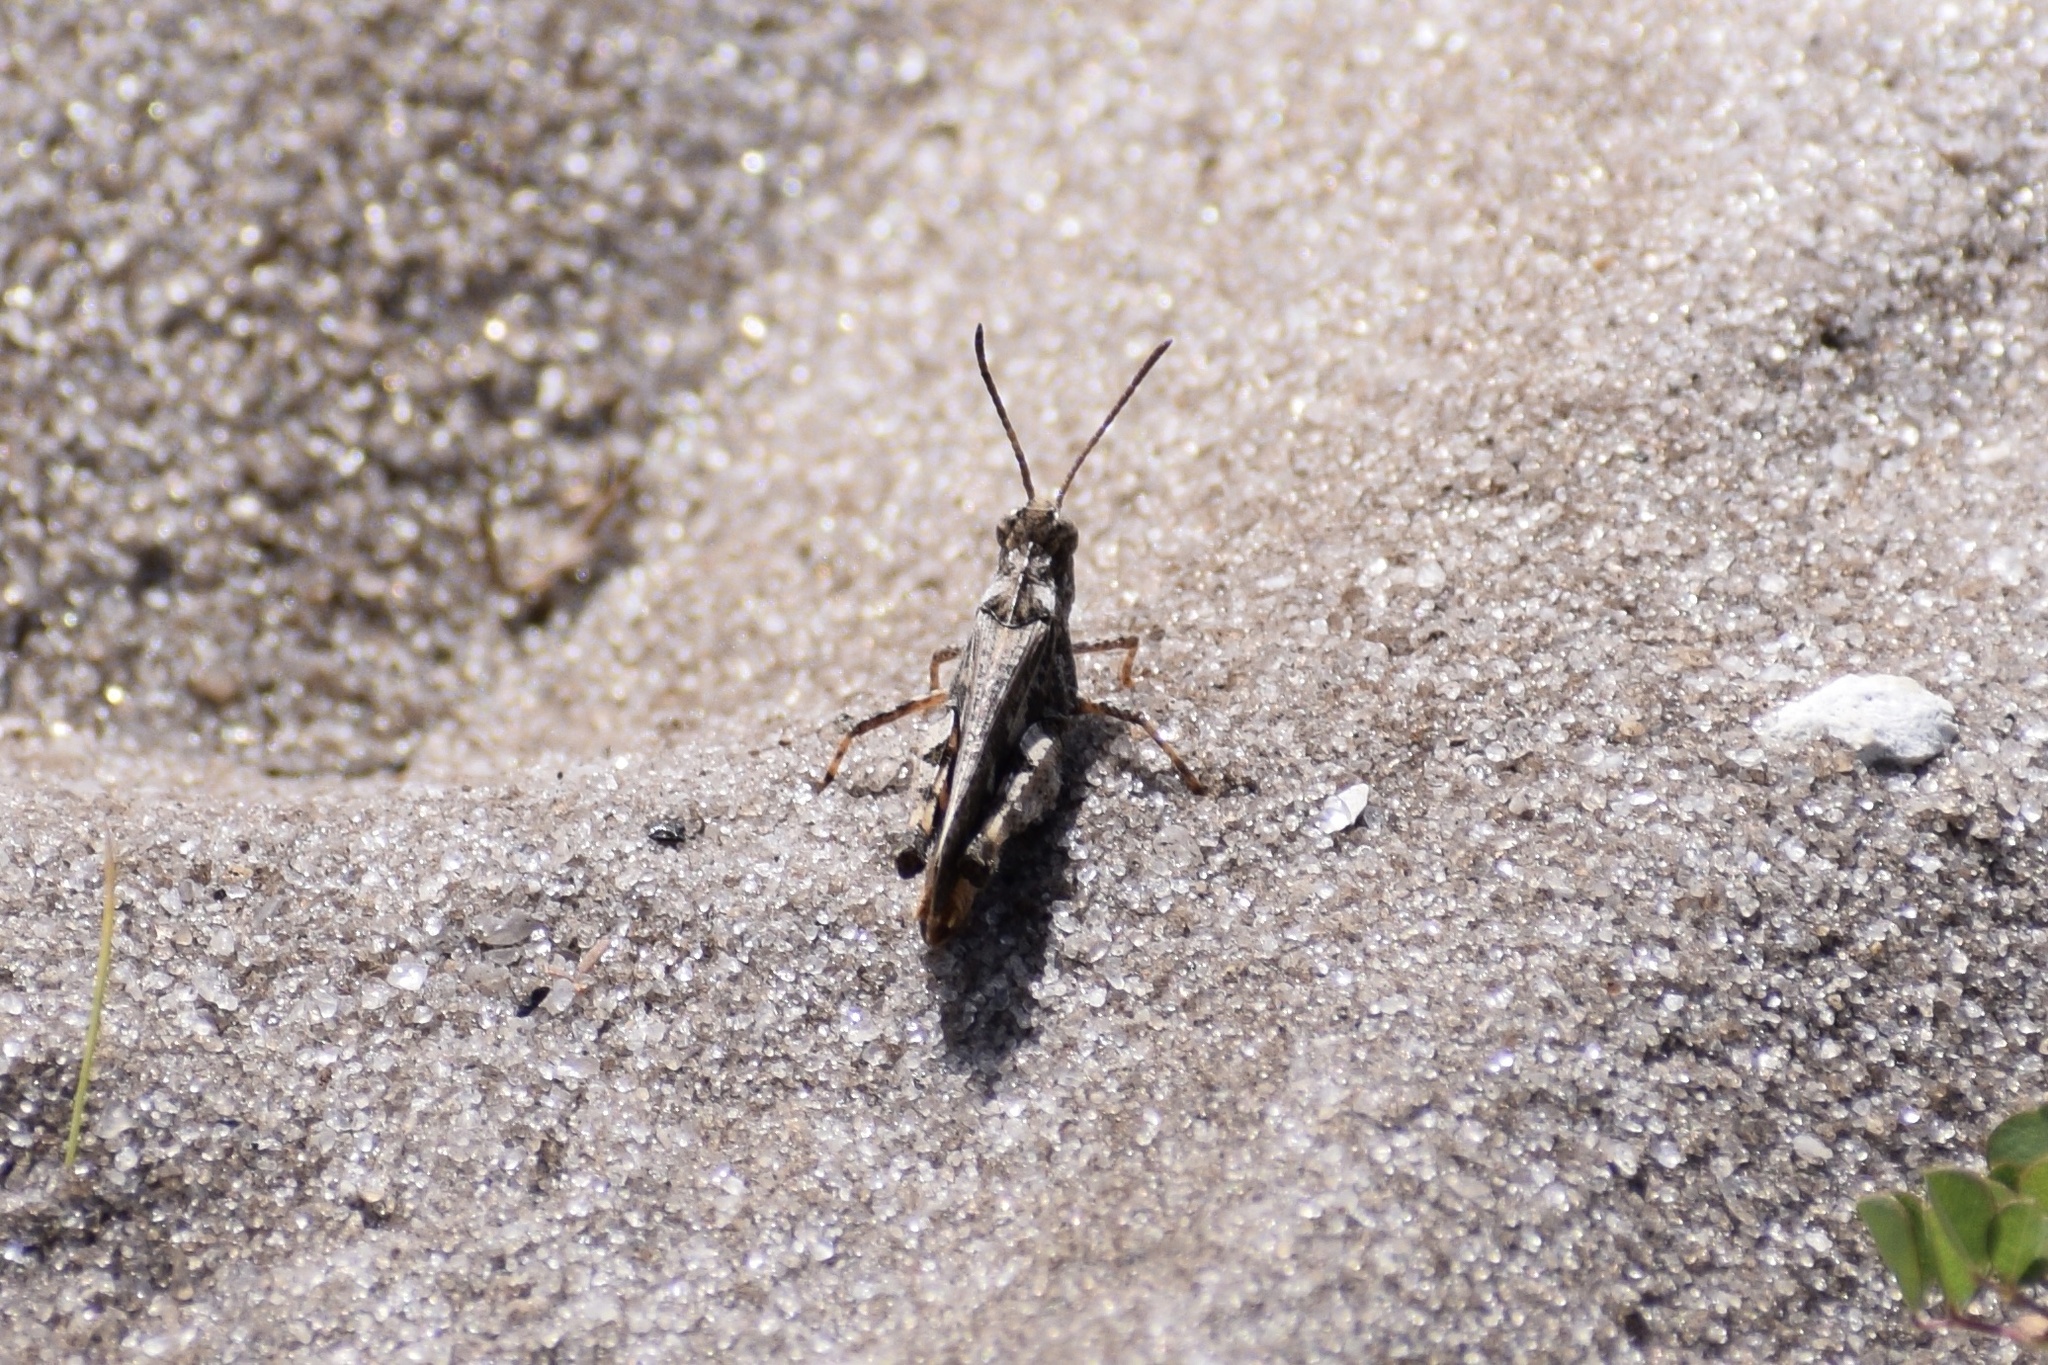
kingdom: Animalia
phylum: Arthropoda
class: Insecta
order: Orthoptera
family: Acrididae
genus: Chortophaga
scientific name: Chortophaga australior
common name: Southern green-striped grasshopper
